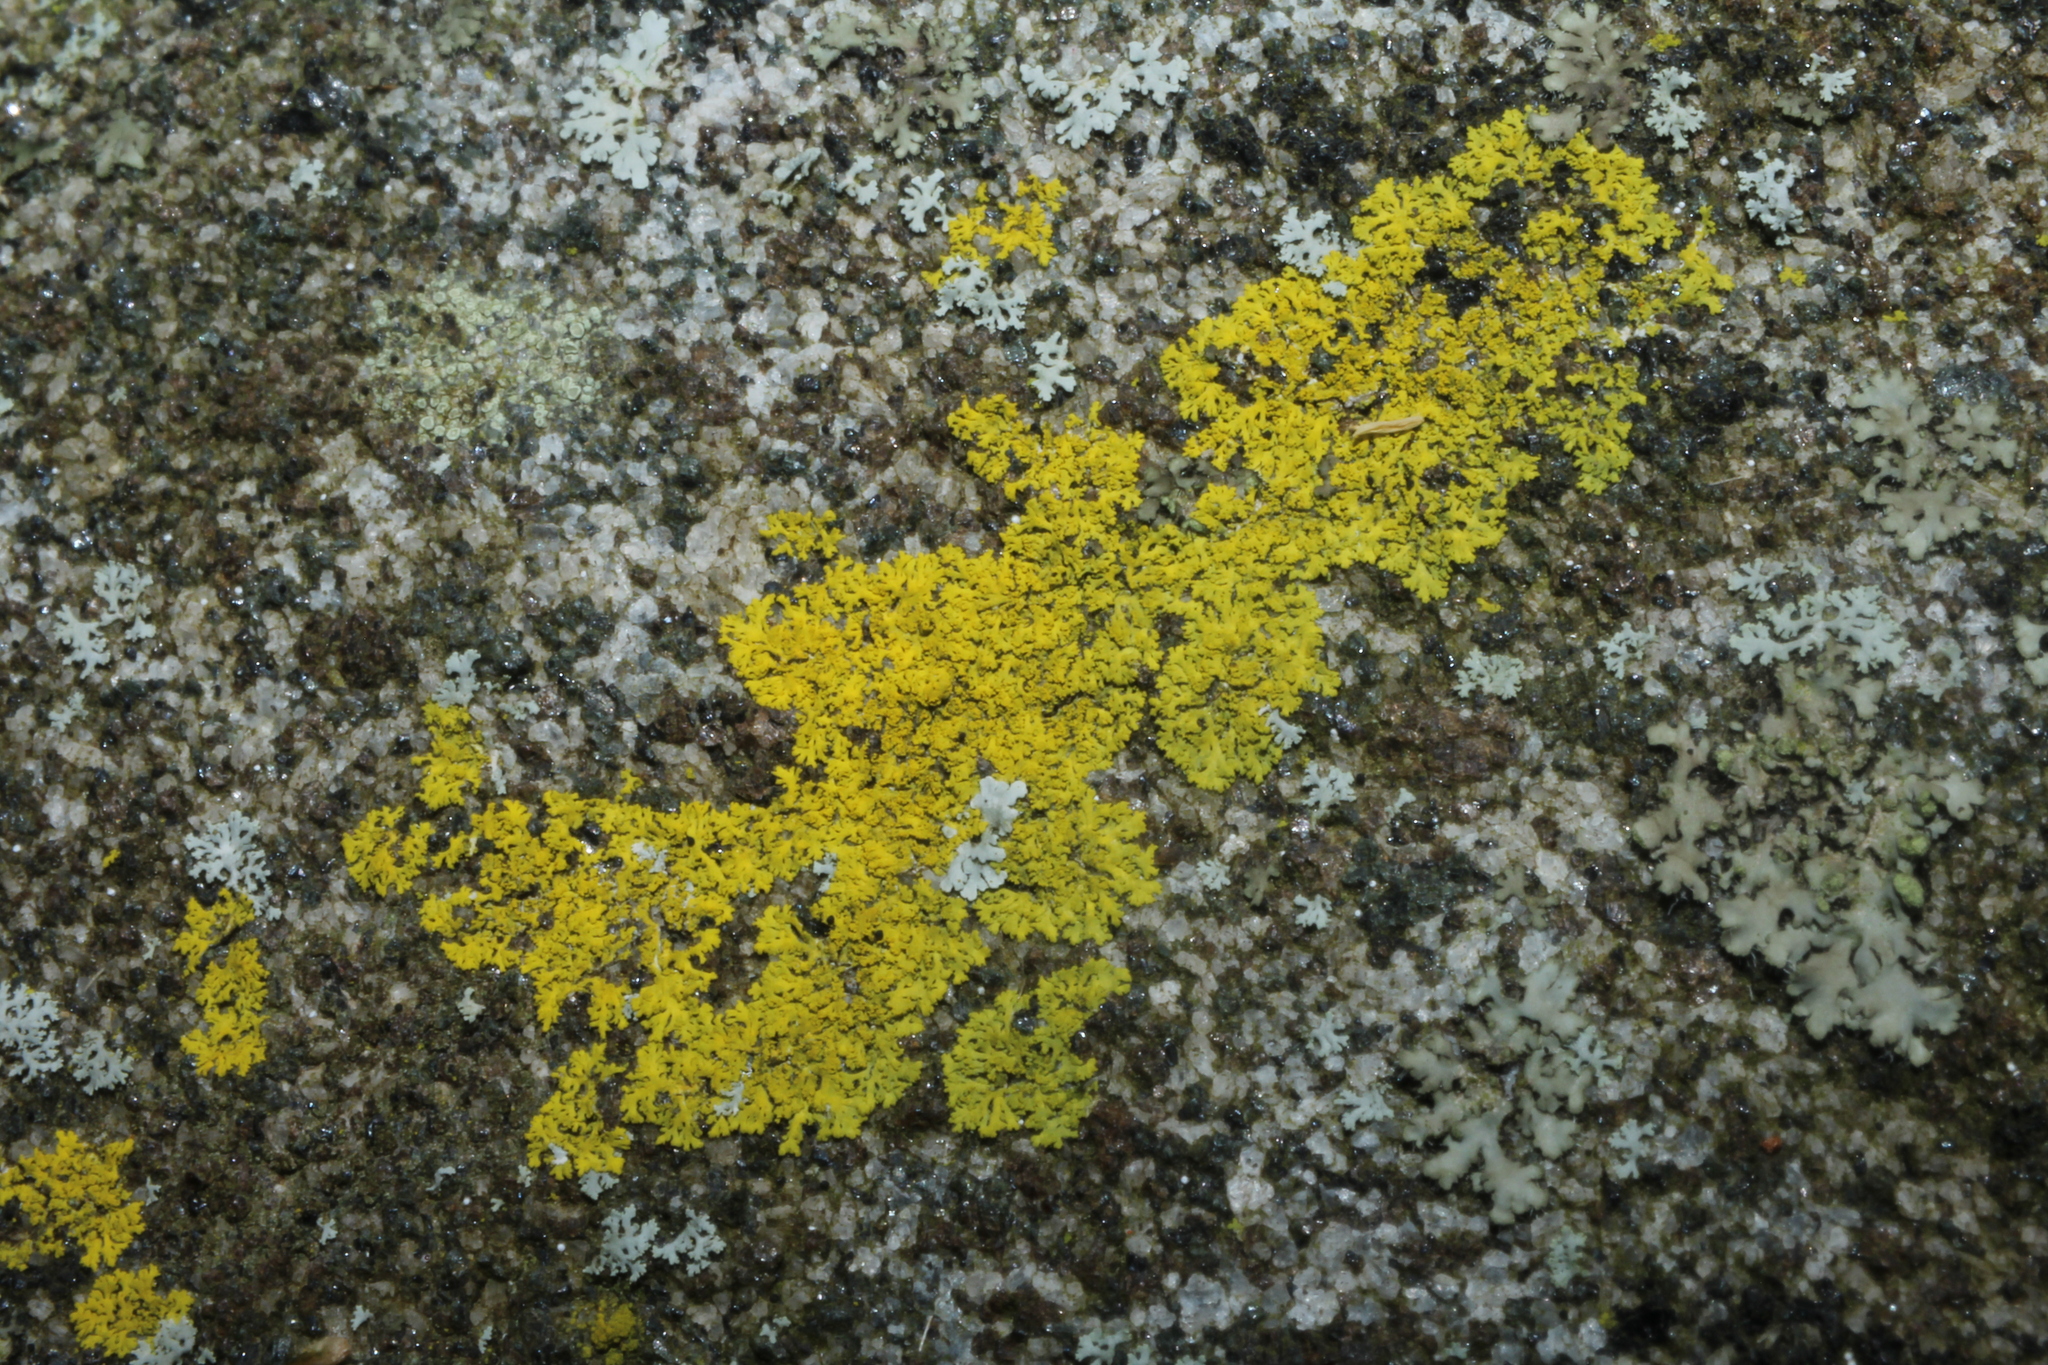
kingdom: Fungi
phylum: Ascomycota
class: Candelariomycetes
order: Candelariales
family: Candelariaceae
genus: Candelaria
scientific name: Candelaria concolor
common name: Candleflame lichen
